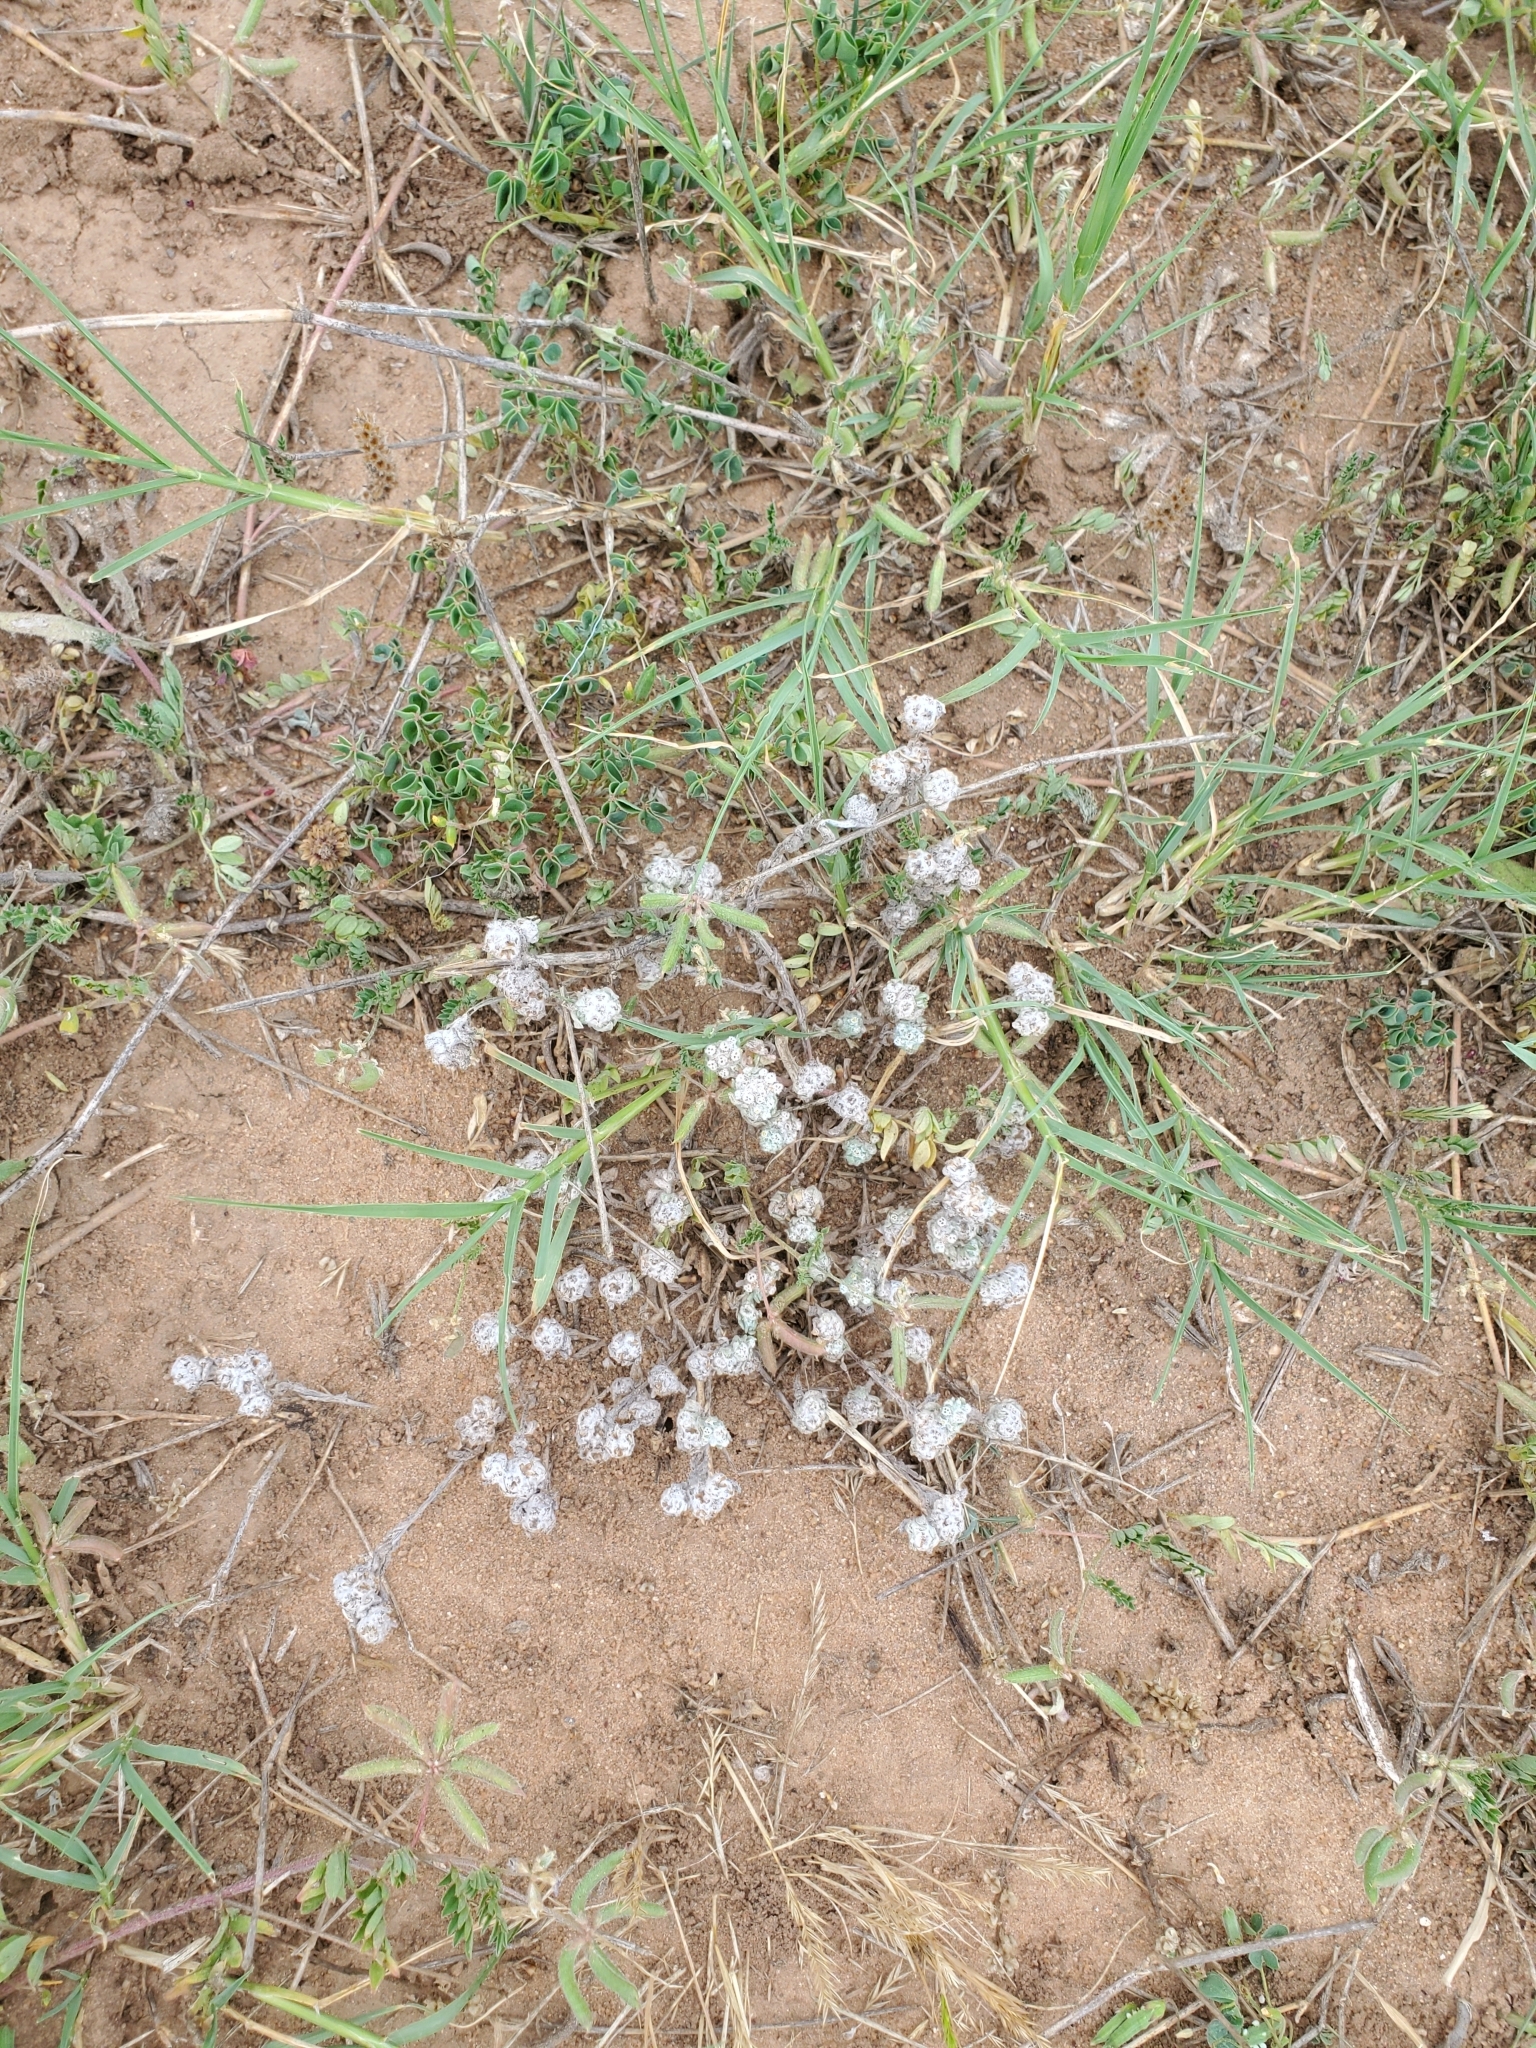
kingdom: Plantae
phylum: Tracheophyta
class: Magnoliopsida
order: Asterales
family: Asteraceae
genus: Diaperia
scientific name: Diaperia verna
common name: Many-stem rabbit-tobacco
